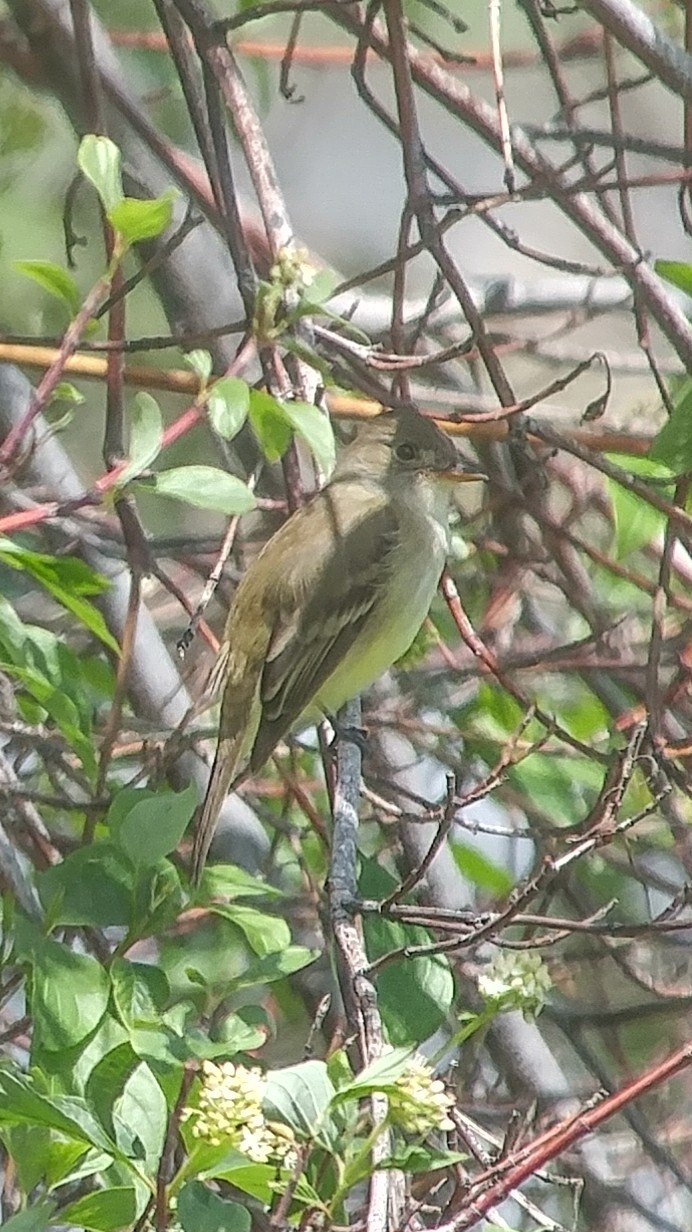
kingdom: Animalia
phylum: Chordata
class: Aves
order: Passeriformes
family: Tyrannidae
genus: Empidonax
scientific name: Empidonax traillii
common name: Willow flycatcher
